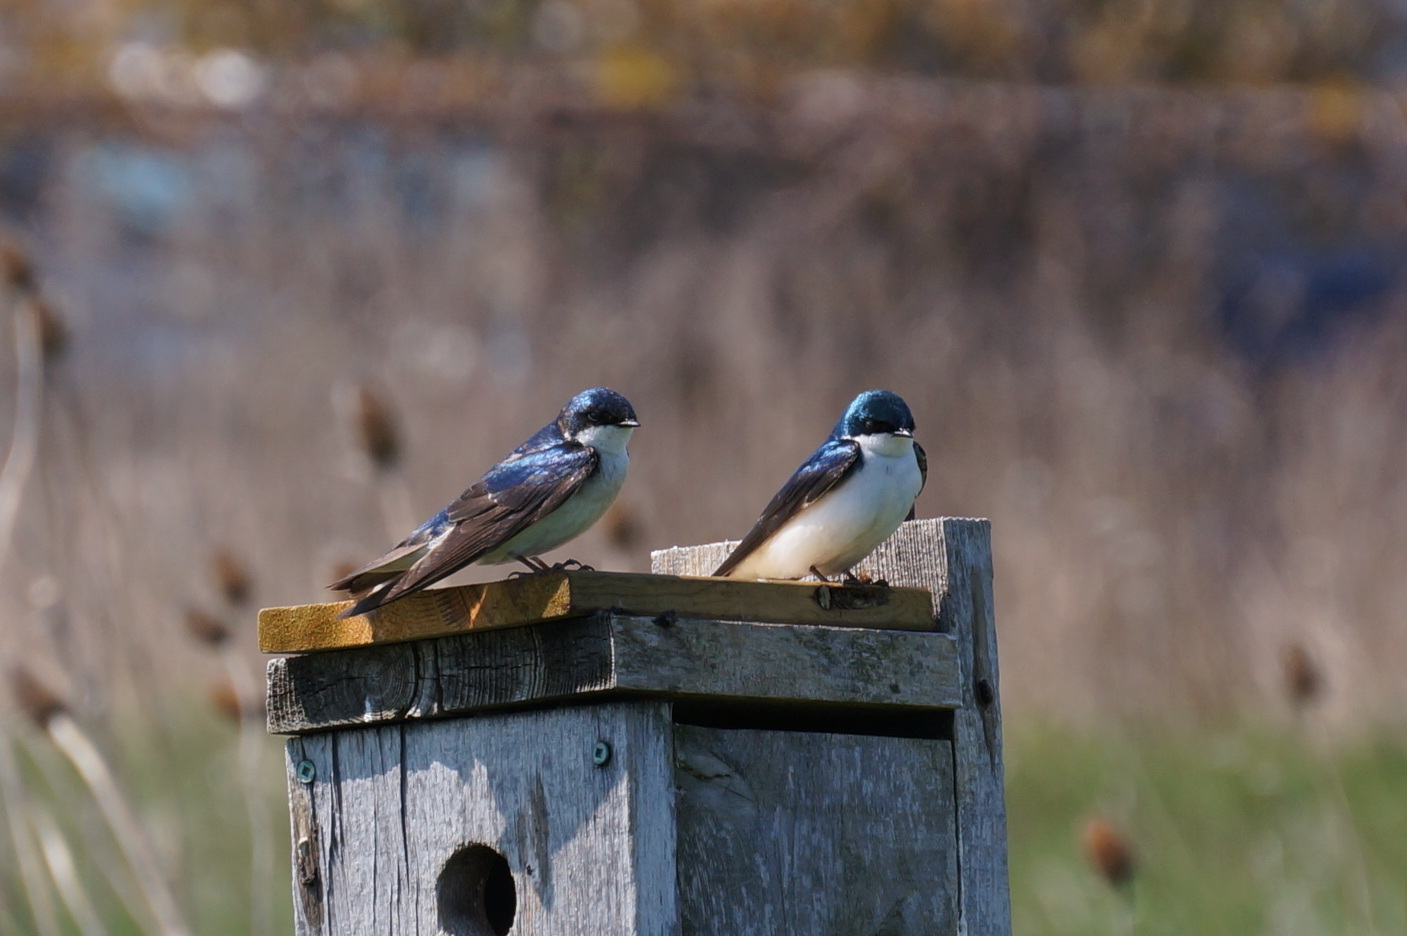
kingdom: Animalia
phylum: Chordata
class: Aves
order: Passeriformes
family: Hirundinidae
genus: Tachycineta
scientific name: Tachycineta bicolor
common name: Tree swallow
